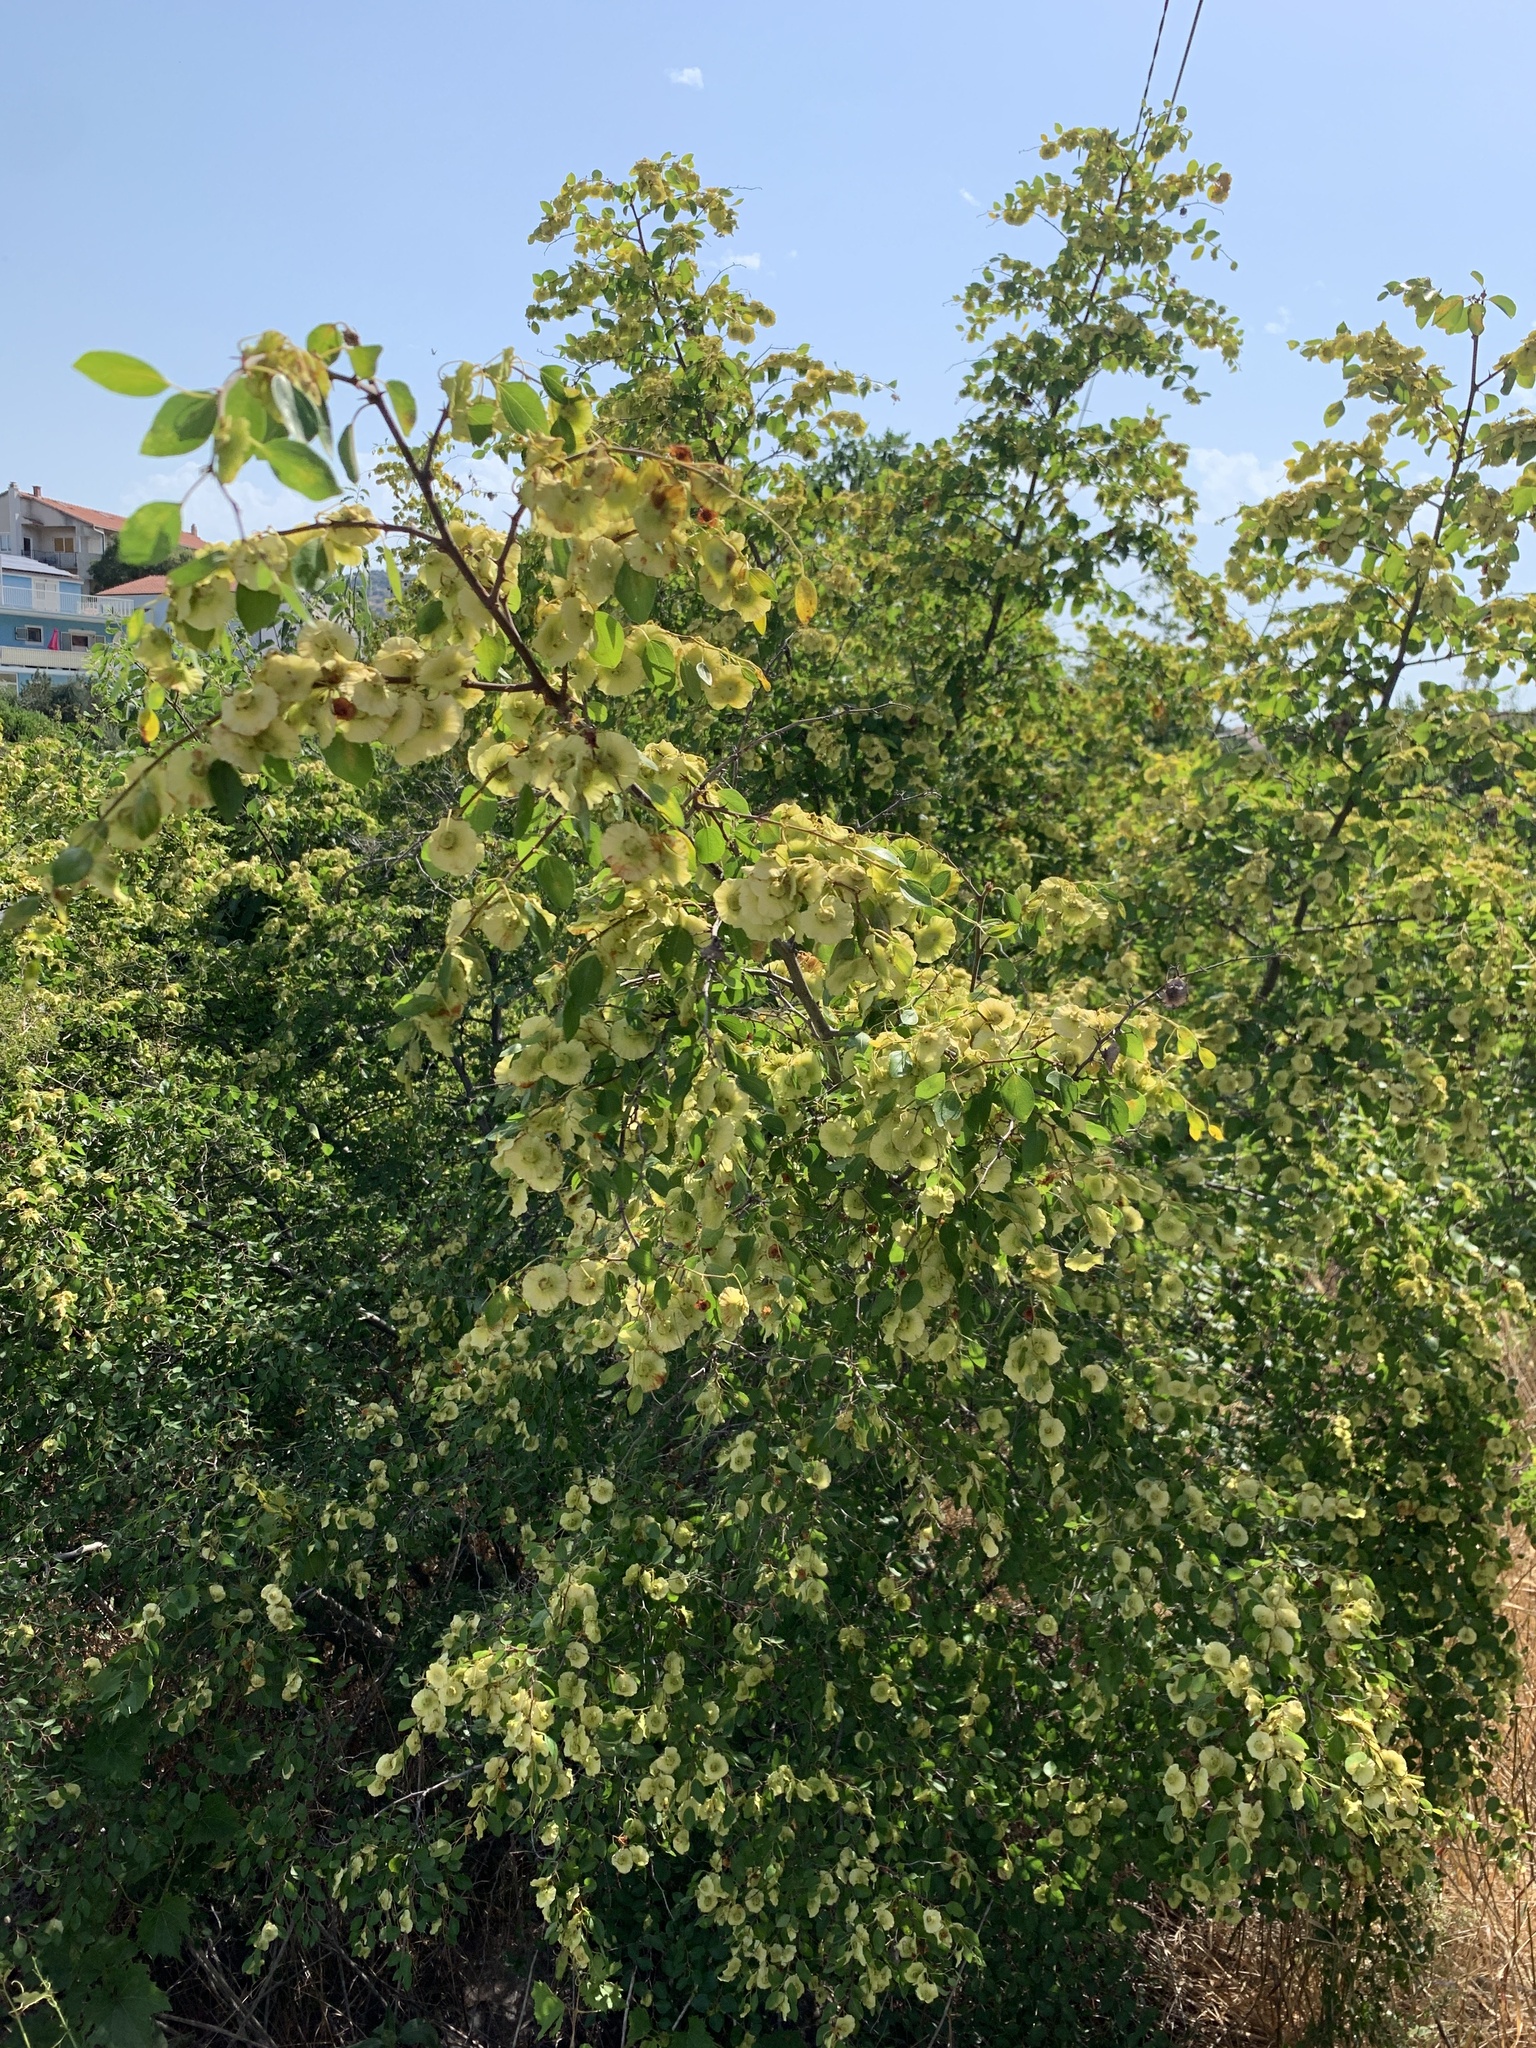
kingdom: Plantae
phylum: Tracheophyta
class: Magnoliopsida
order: Rosales
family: Rhamnaceae
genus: Paliurus
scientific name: Paliurus spina-christi
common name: Jeruselem thorn
